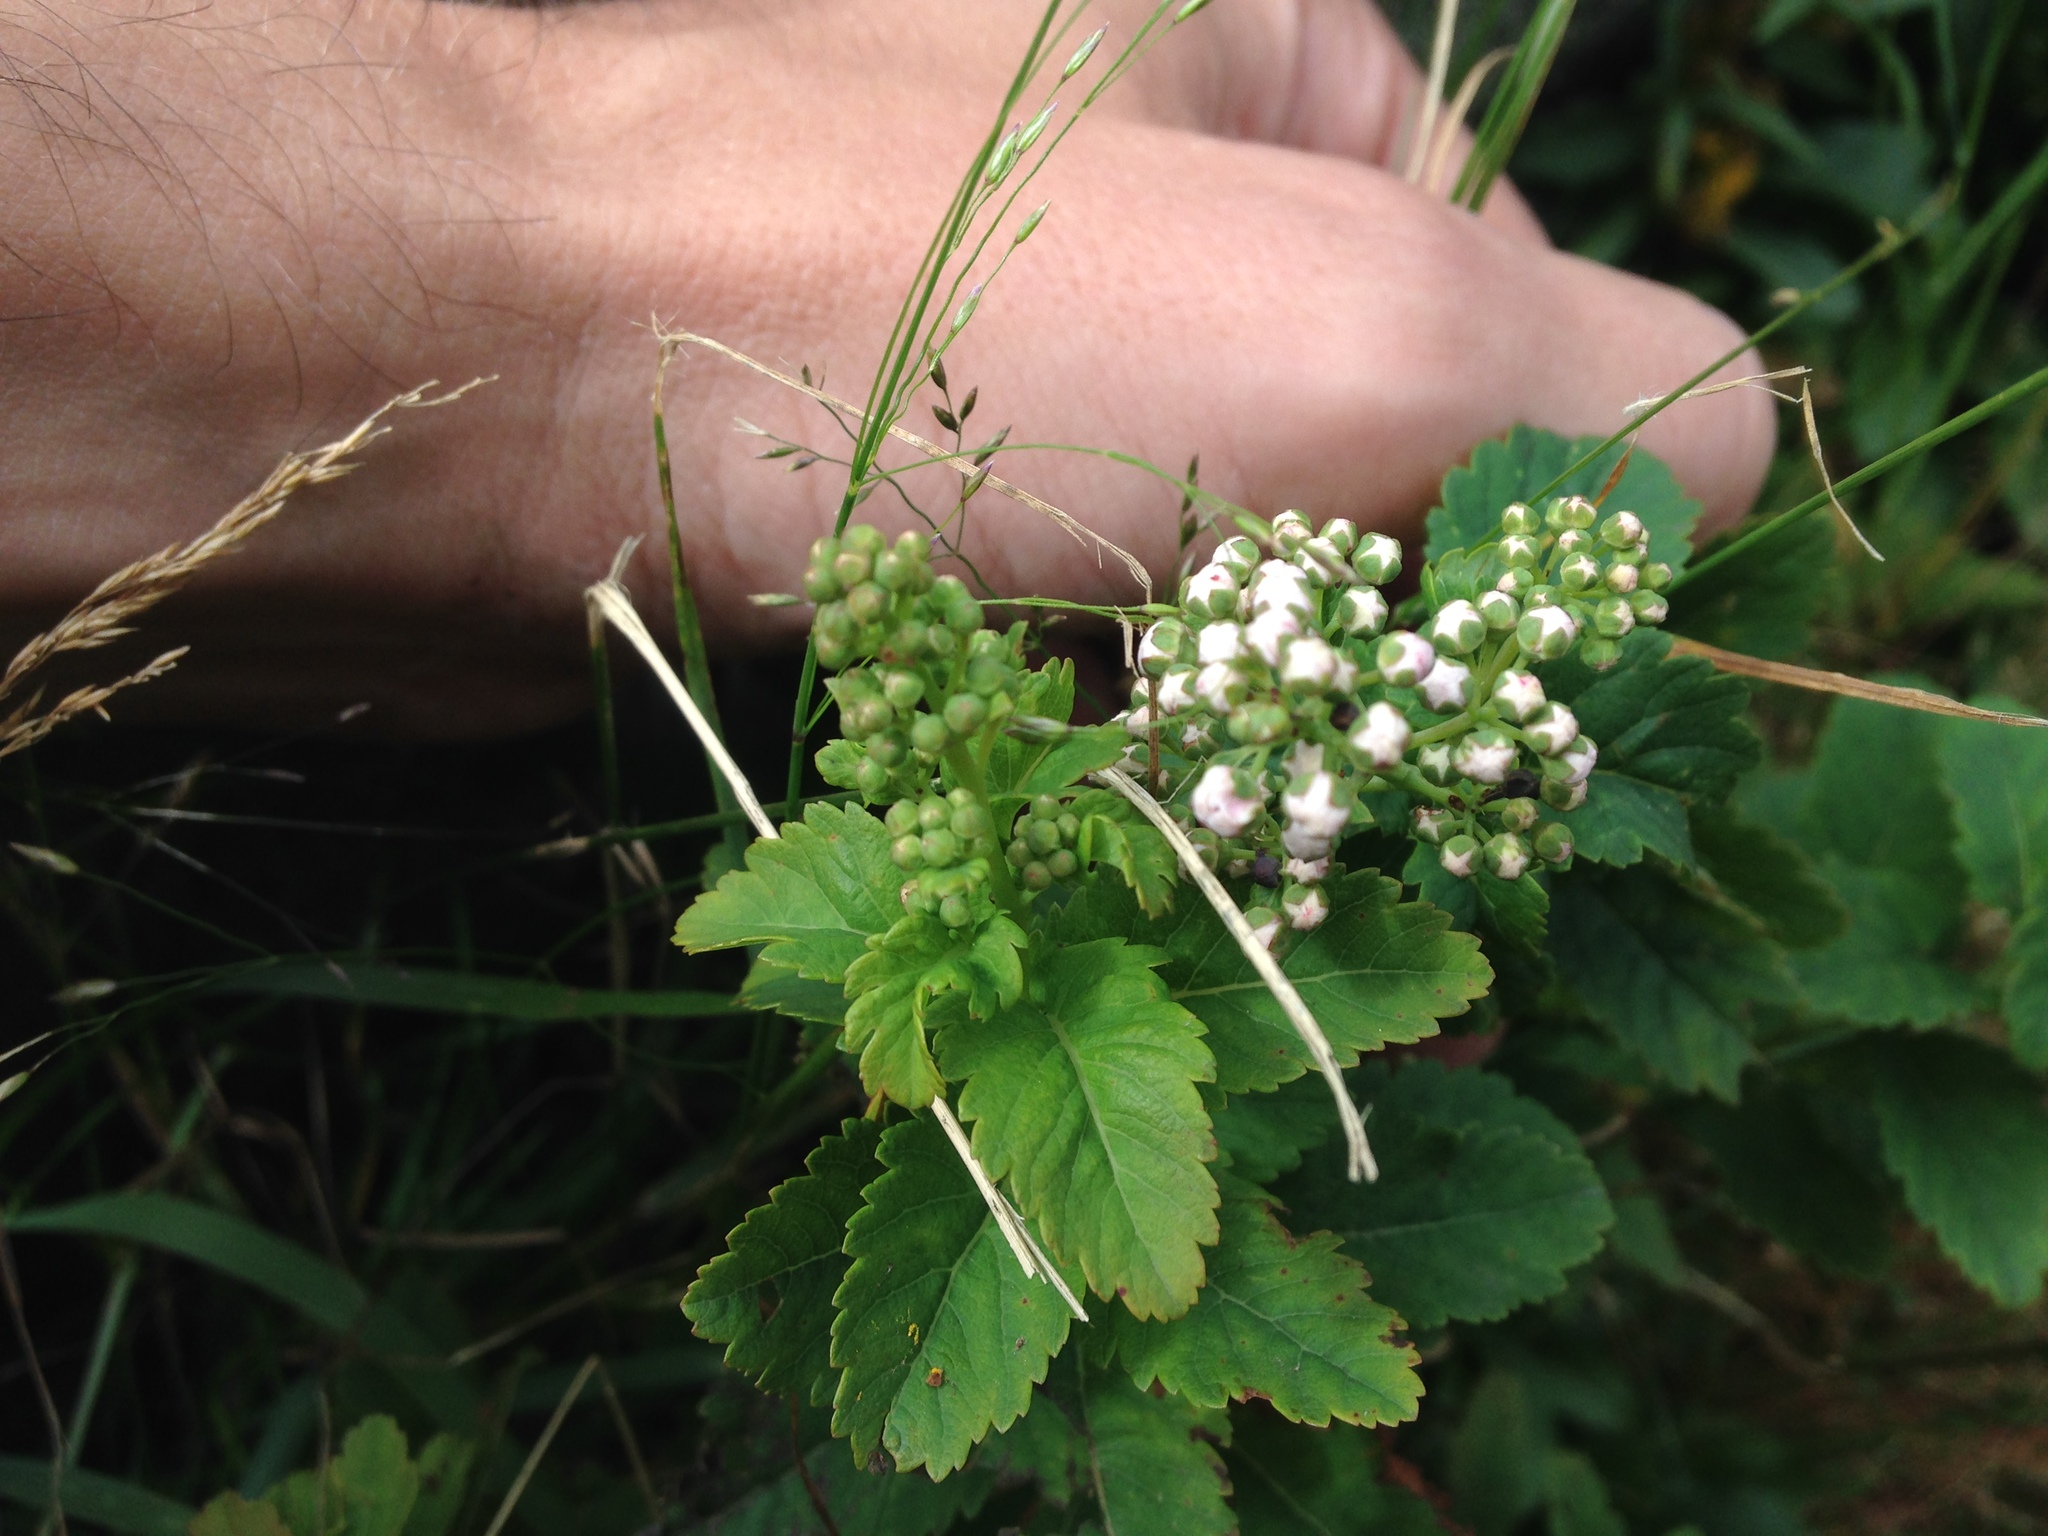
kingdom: Plantae
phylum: Tracheophyta
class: Magnoliopsida
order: Rosales
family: Rosaceae
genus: Spiraea
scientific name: Spiraea alba
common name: Pale bridewort
